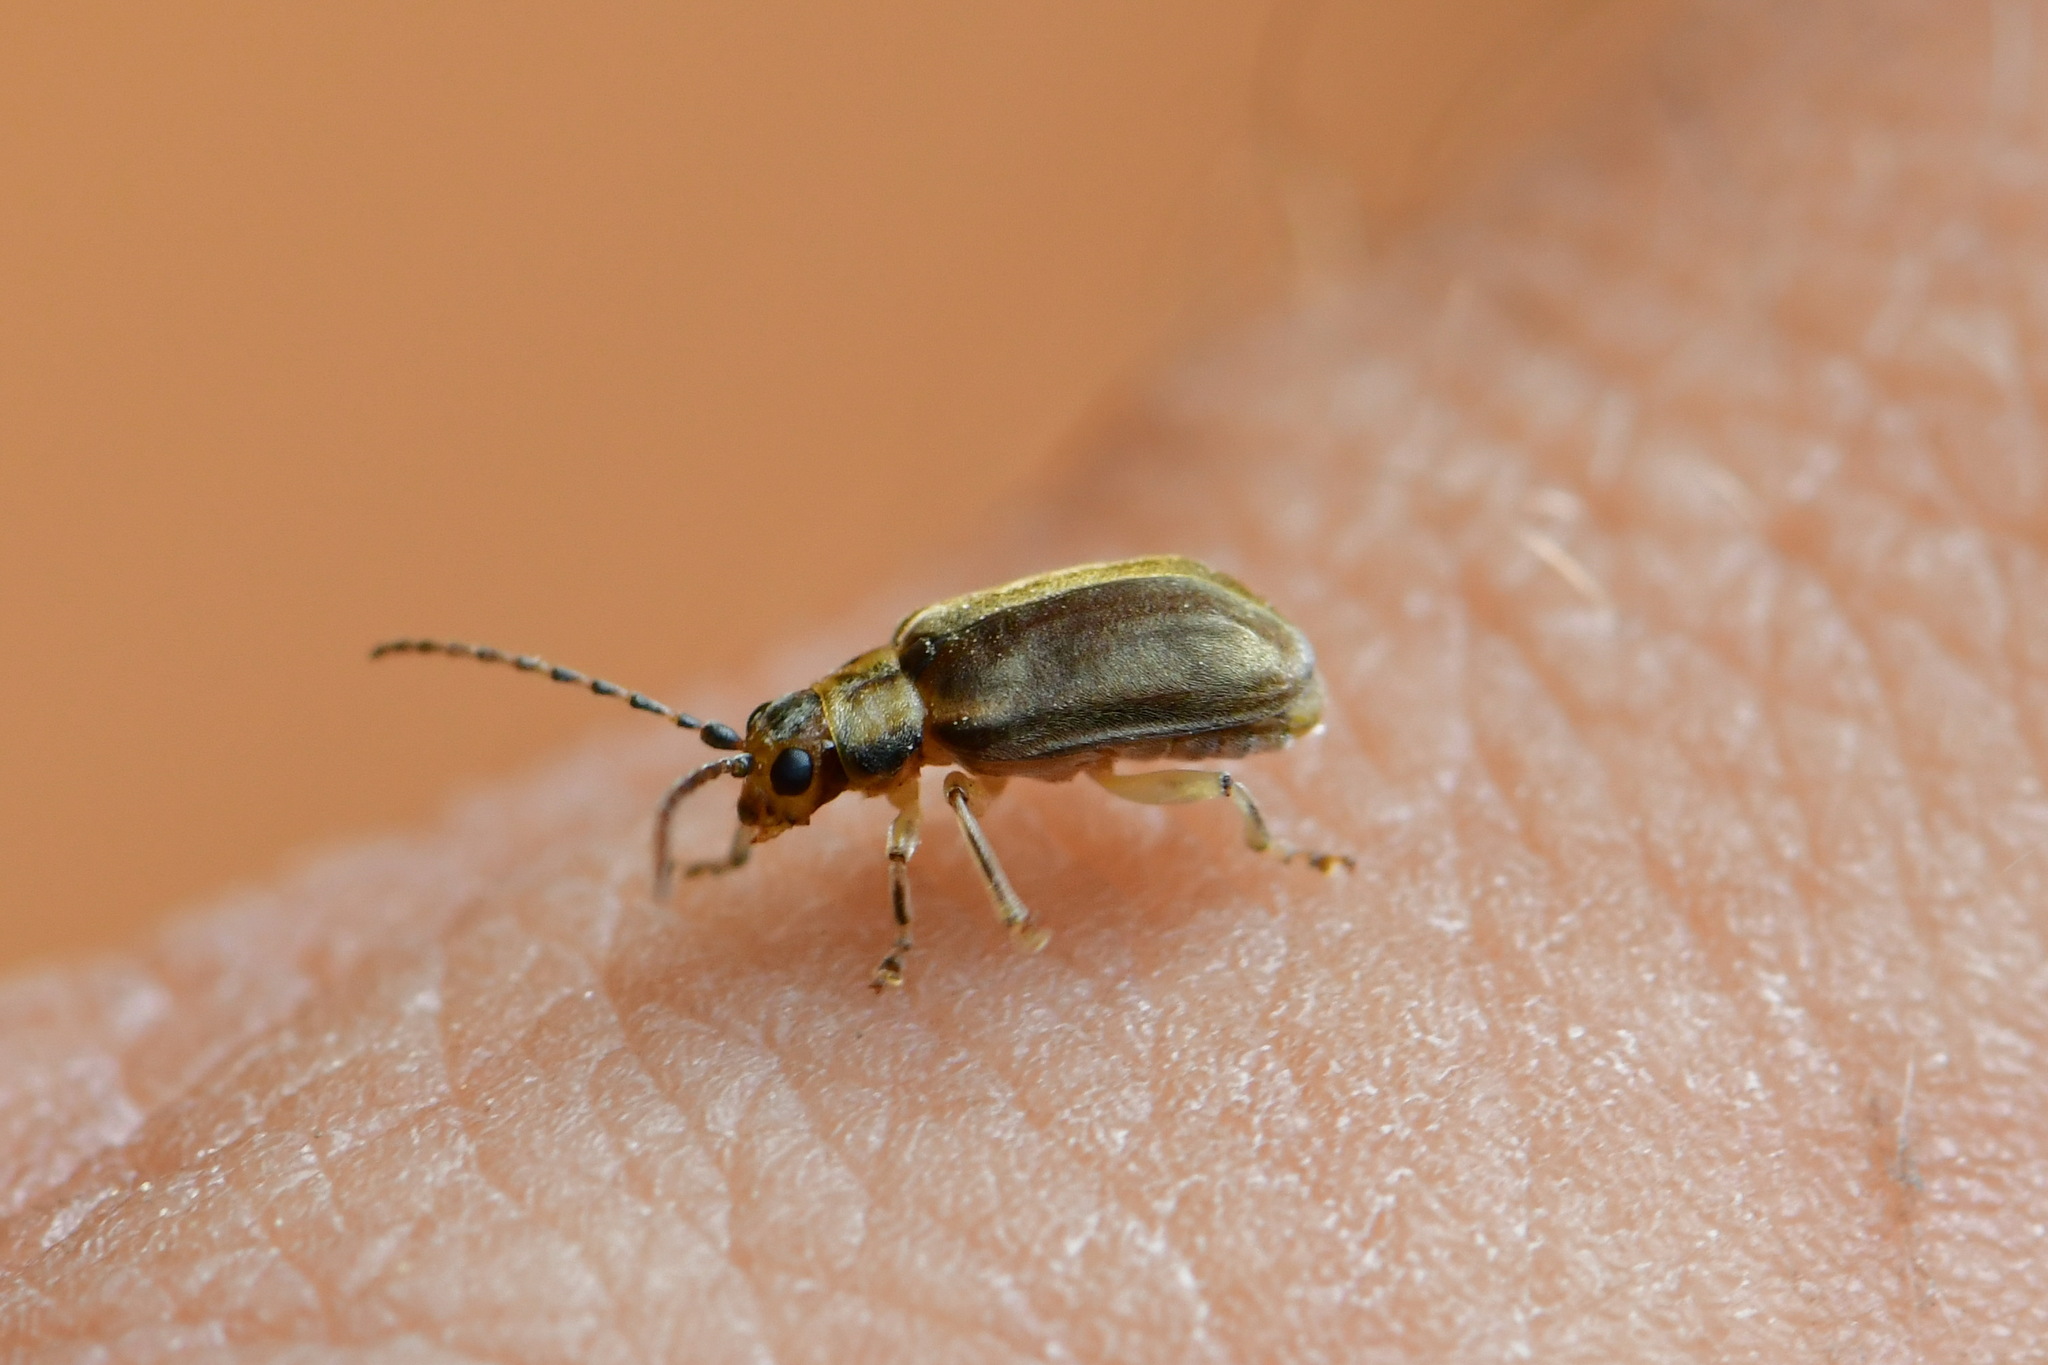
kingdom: Animalia
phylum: Arthropoda
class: Insecta
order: Coleoptera
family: Chrysomelidae
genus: Pyrrhalta
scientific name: Pyrrhalta viburni
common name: Guelder-rose leaf beetle
